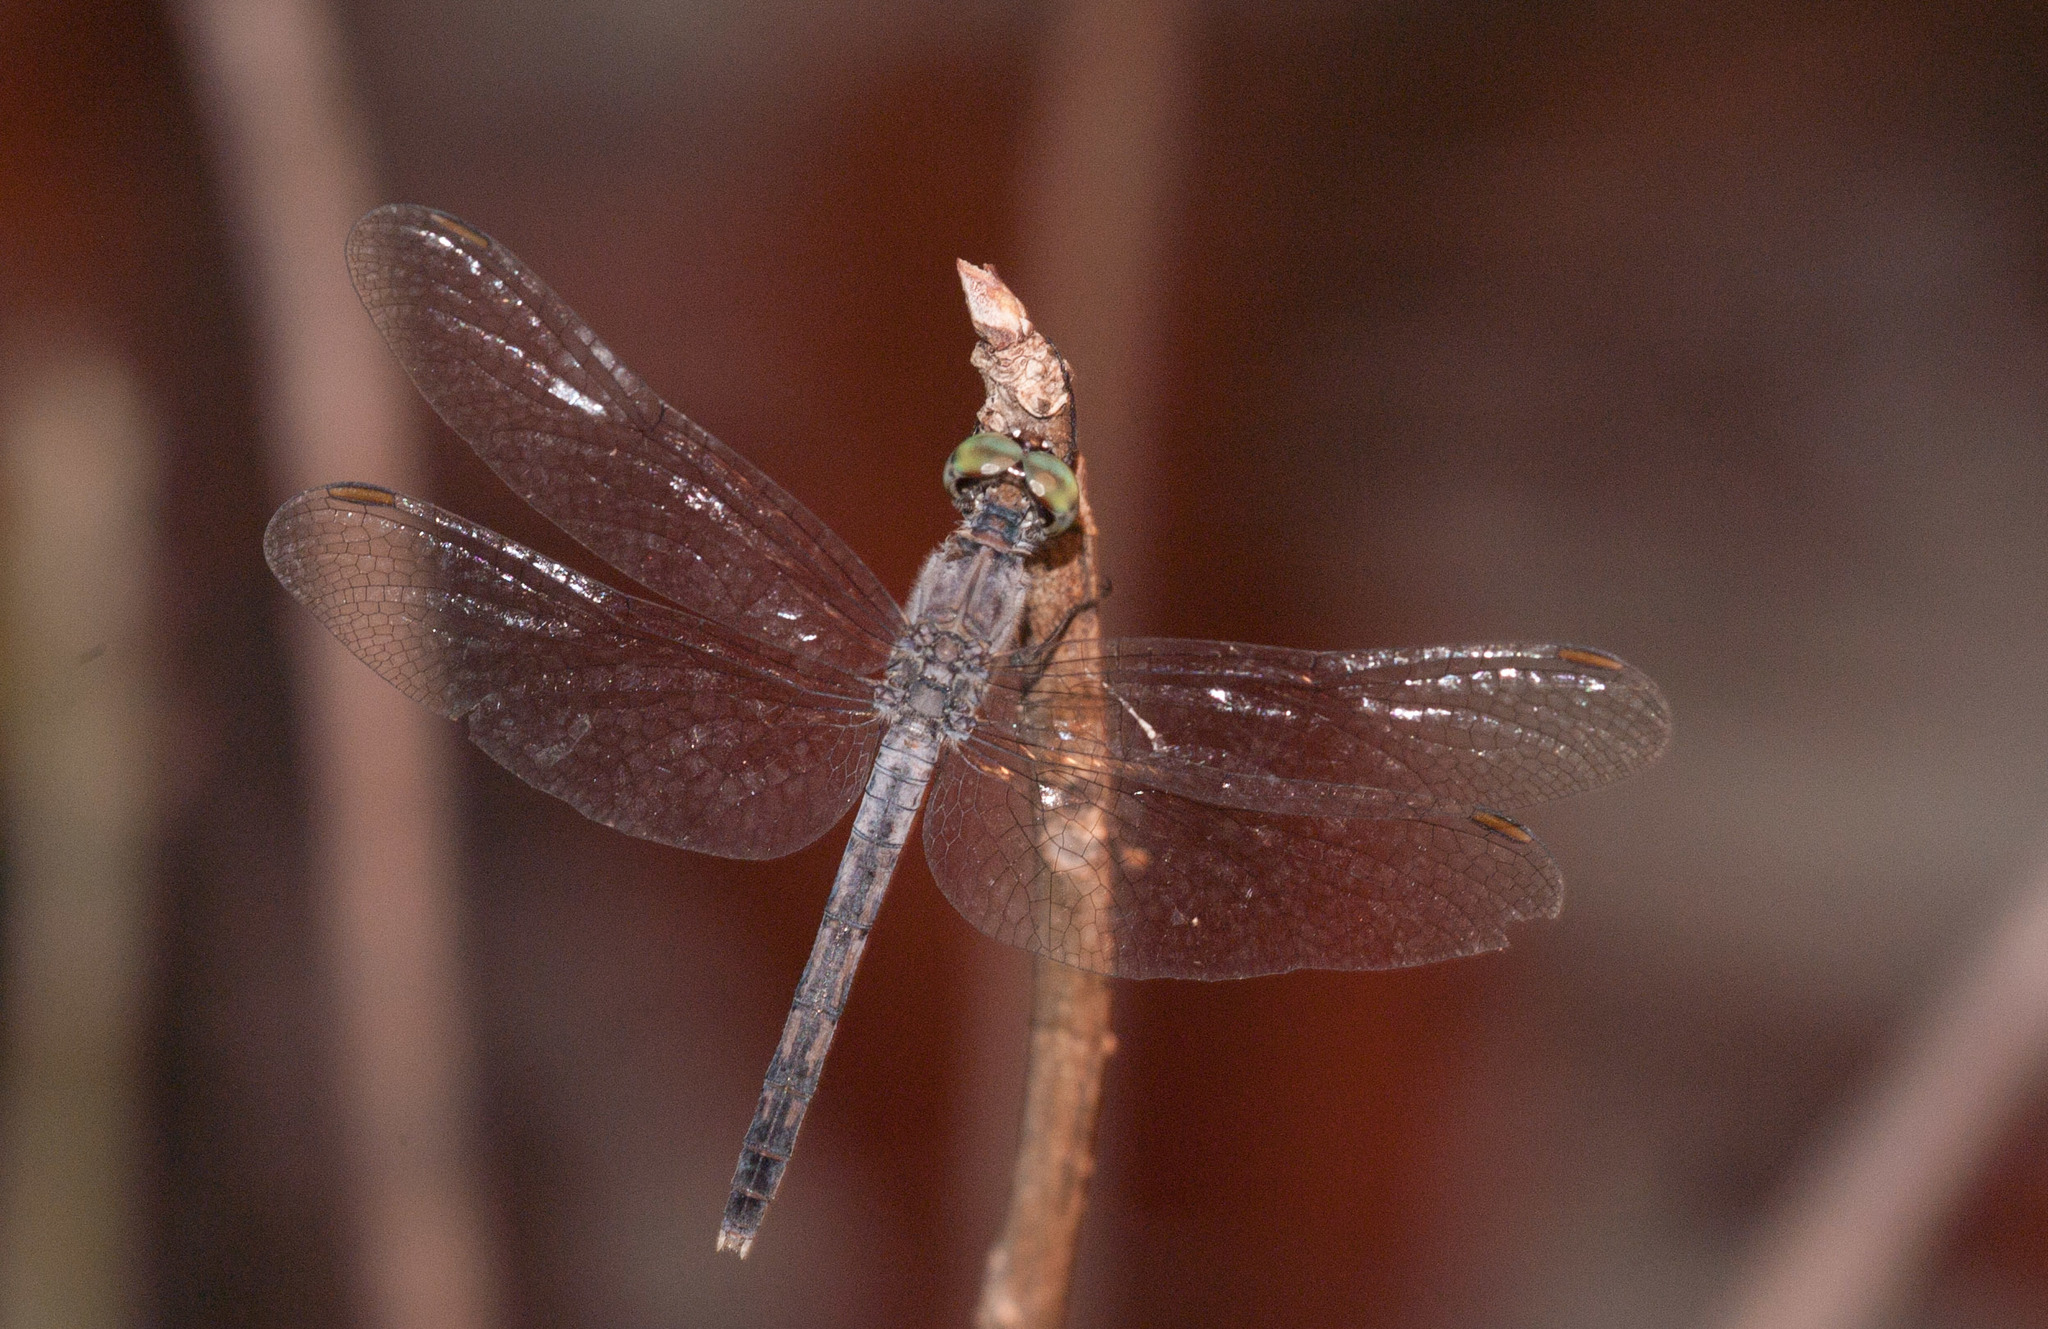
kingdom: Animalia
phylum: Arthropoda
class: Insecta
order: Odonata
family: Libellulidae
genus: Diplacodes
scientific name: Diplacodes trivialis
